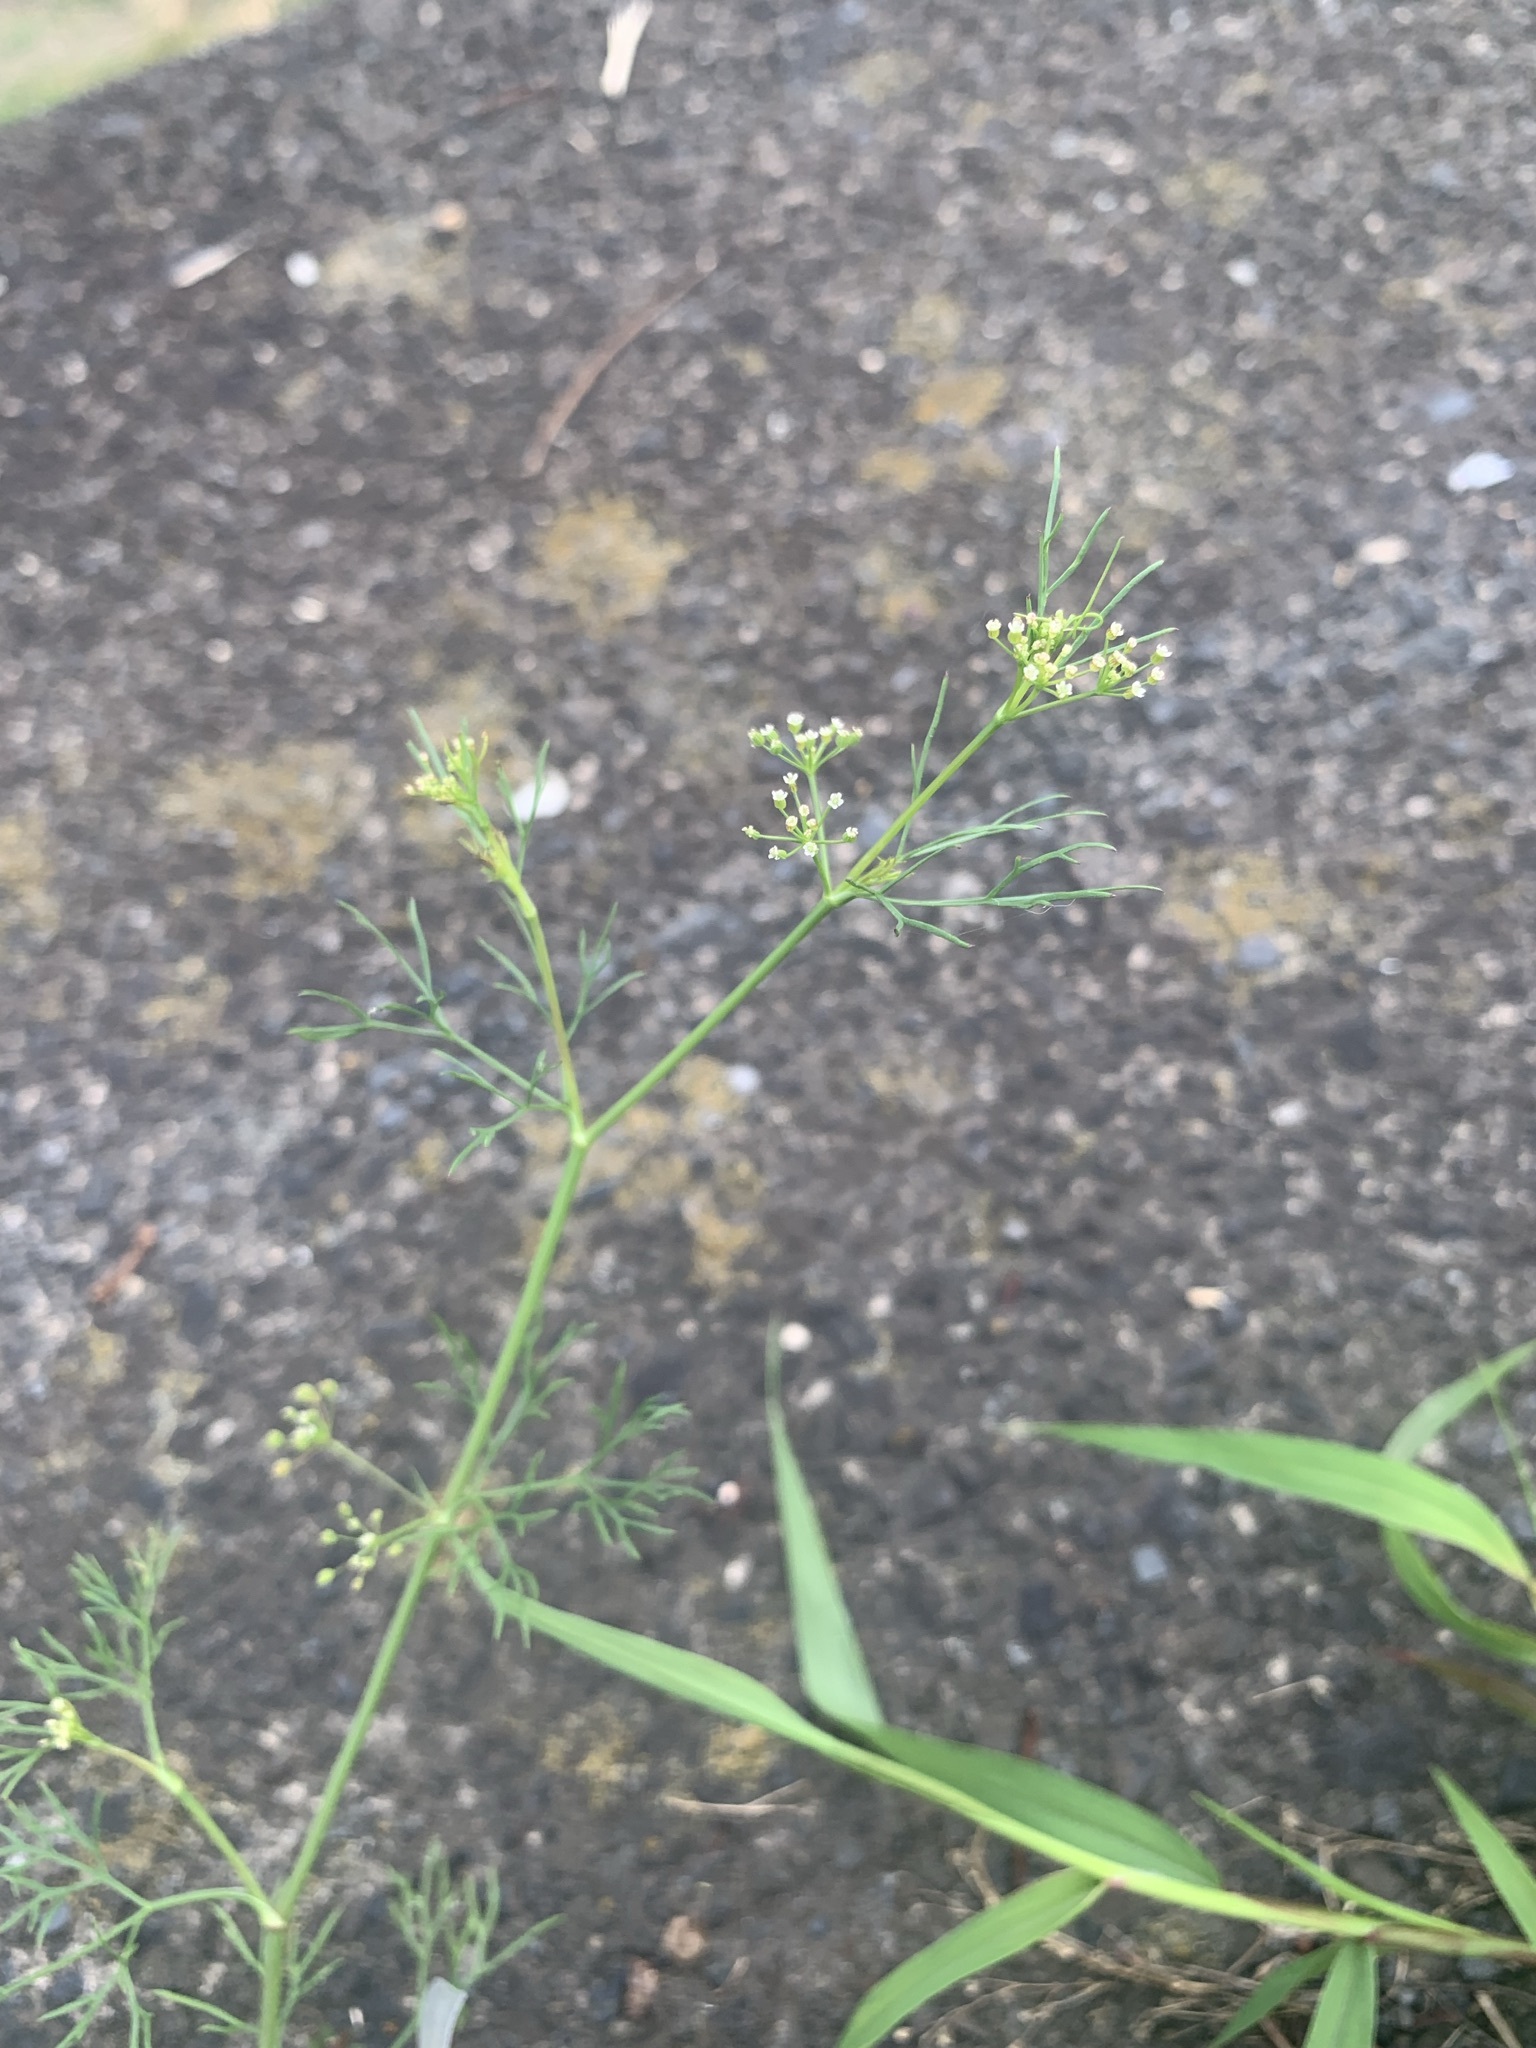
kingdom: Plantae
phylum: Tracheophyta
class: Magnoliopsida
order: Apiales
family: Apiaceae
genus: Cyclospermum
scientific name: Cyclospermum leptophyllum
